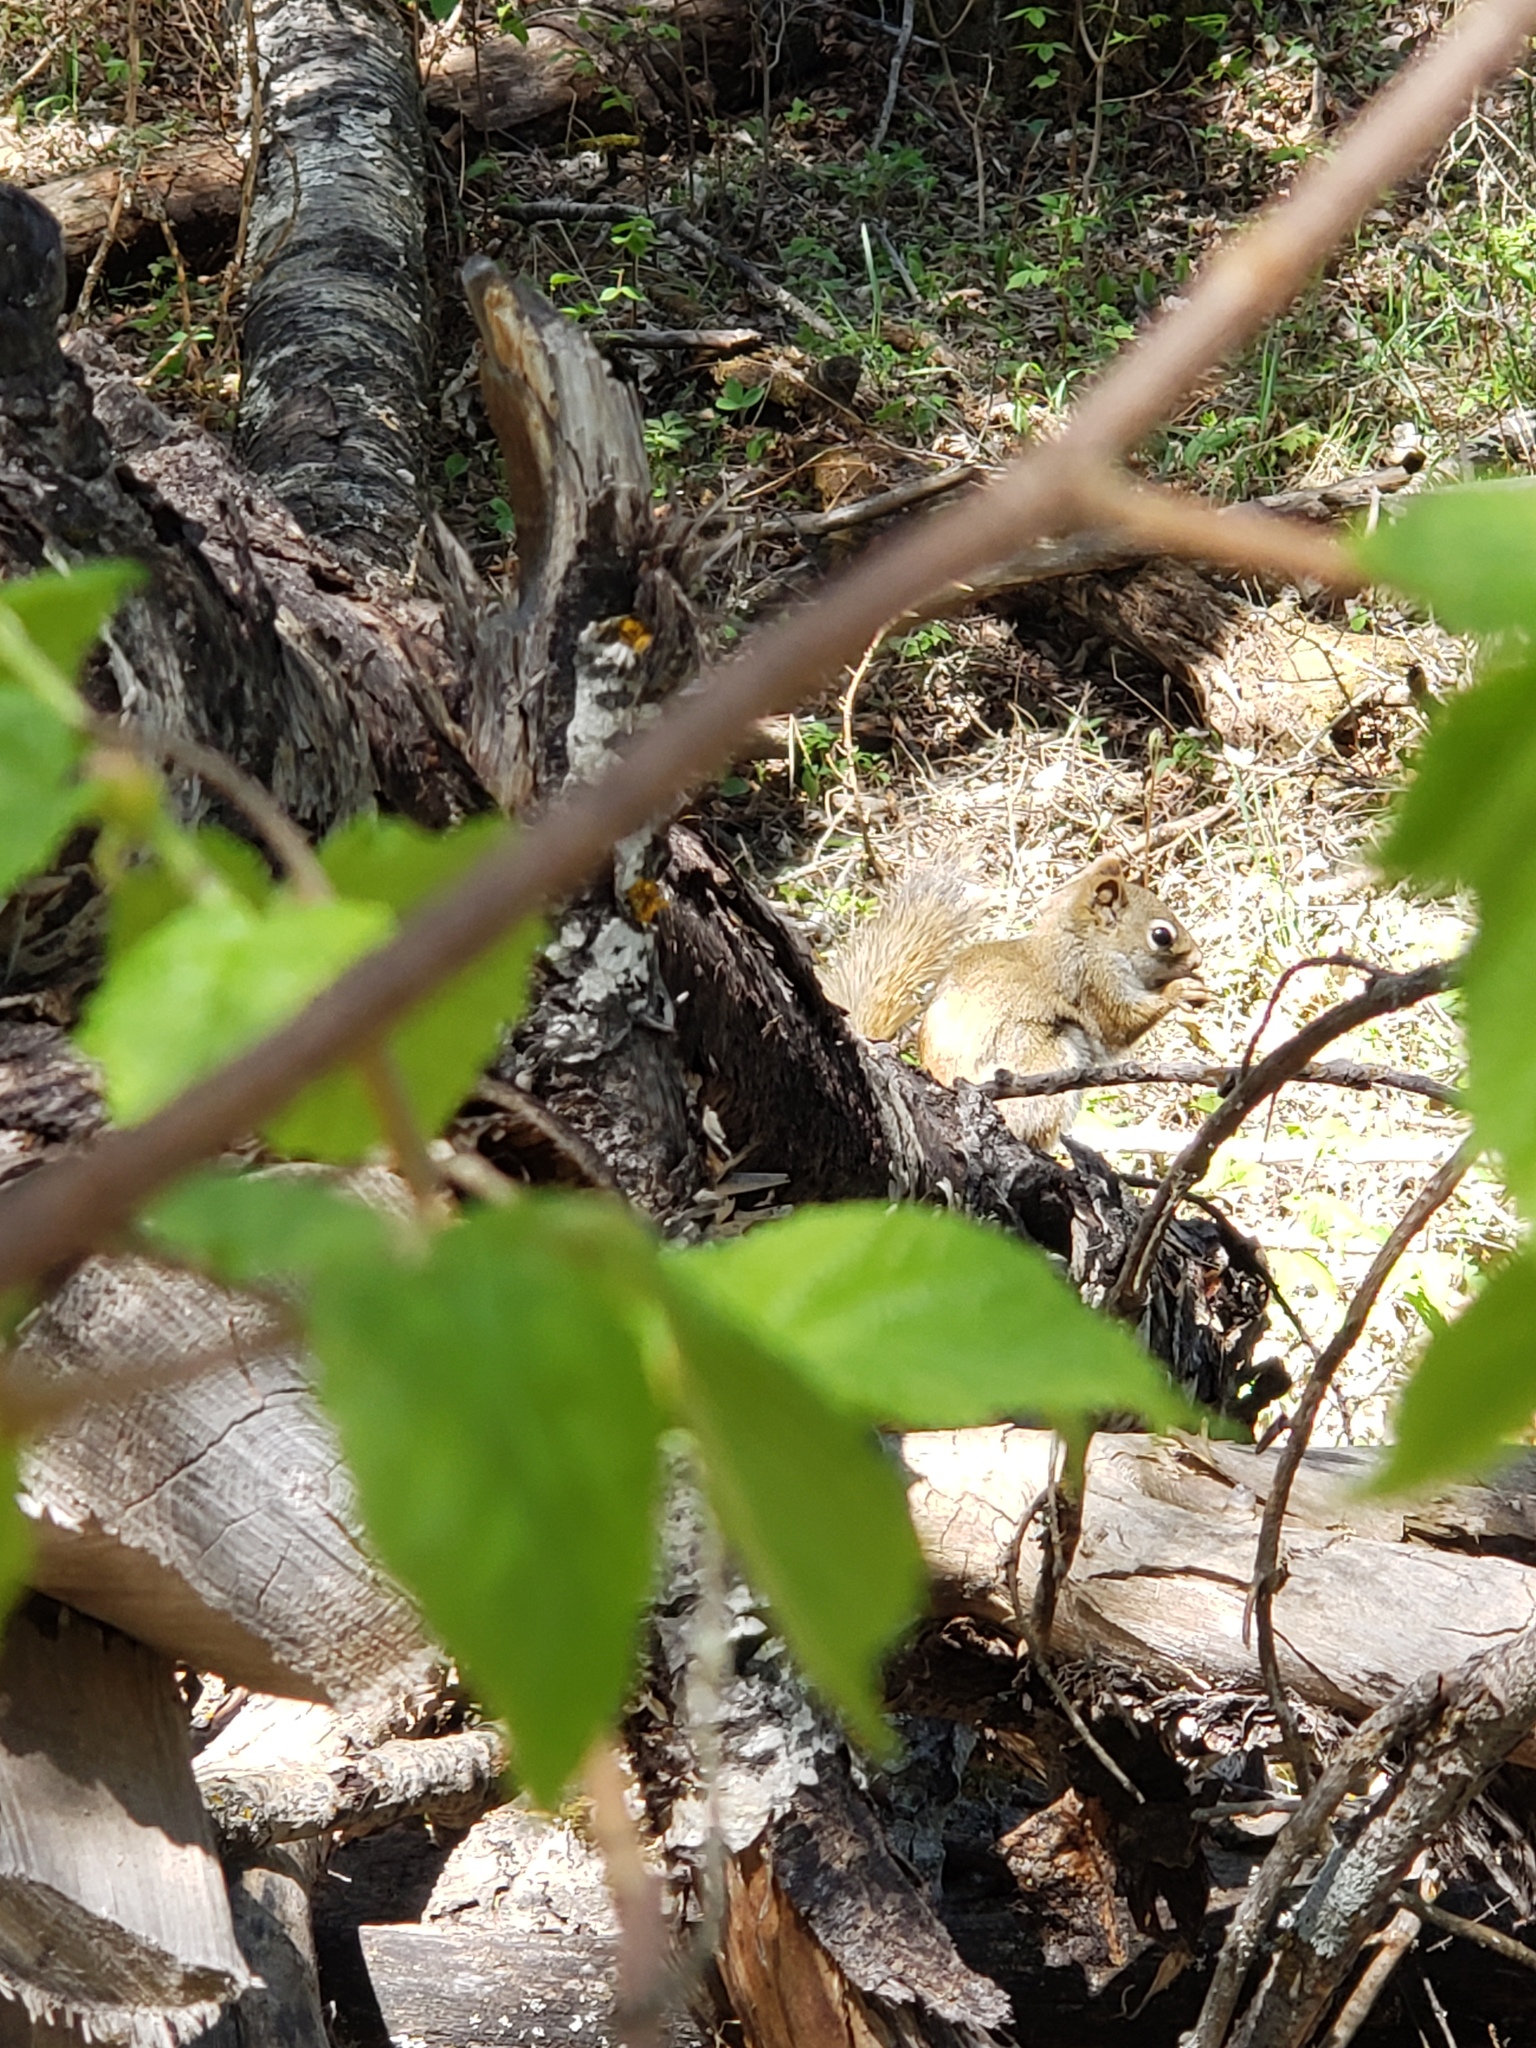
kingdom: Animalia
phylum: Chordata
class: Mammalia
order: Rodentia
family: Sciuridae
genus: Tamiasciurus
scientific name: Tamiasciurus hudsonicus
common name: Red squirrel
